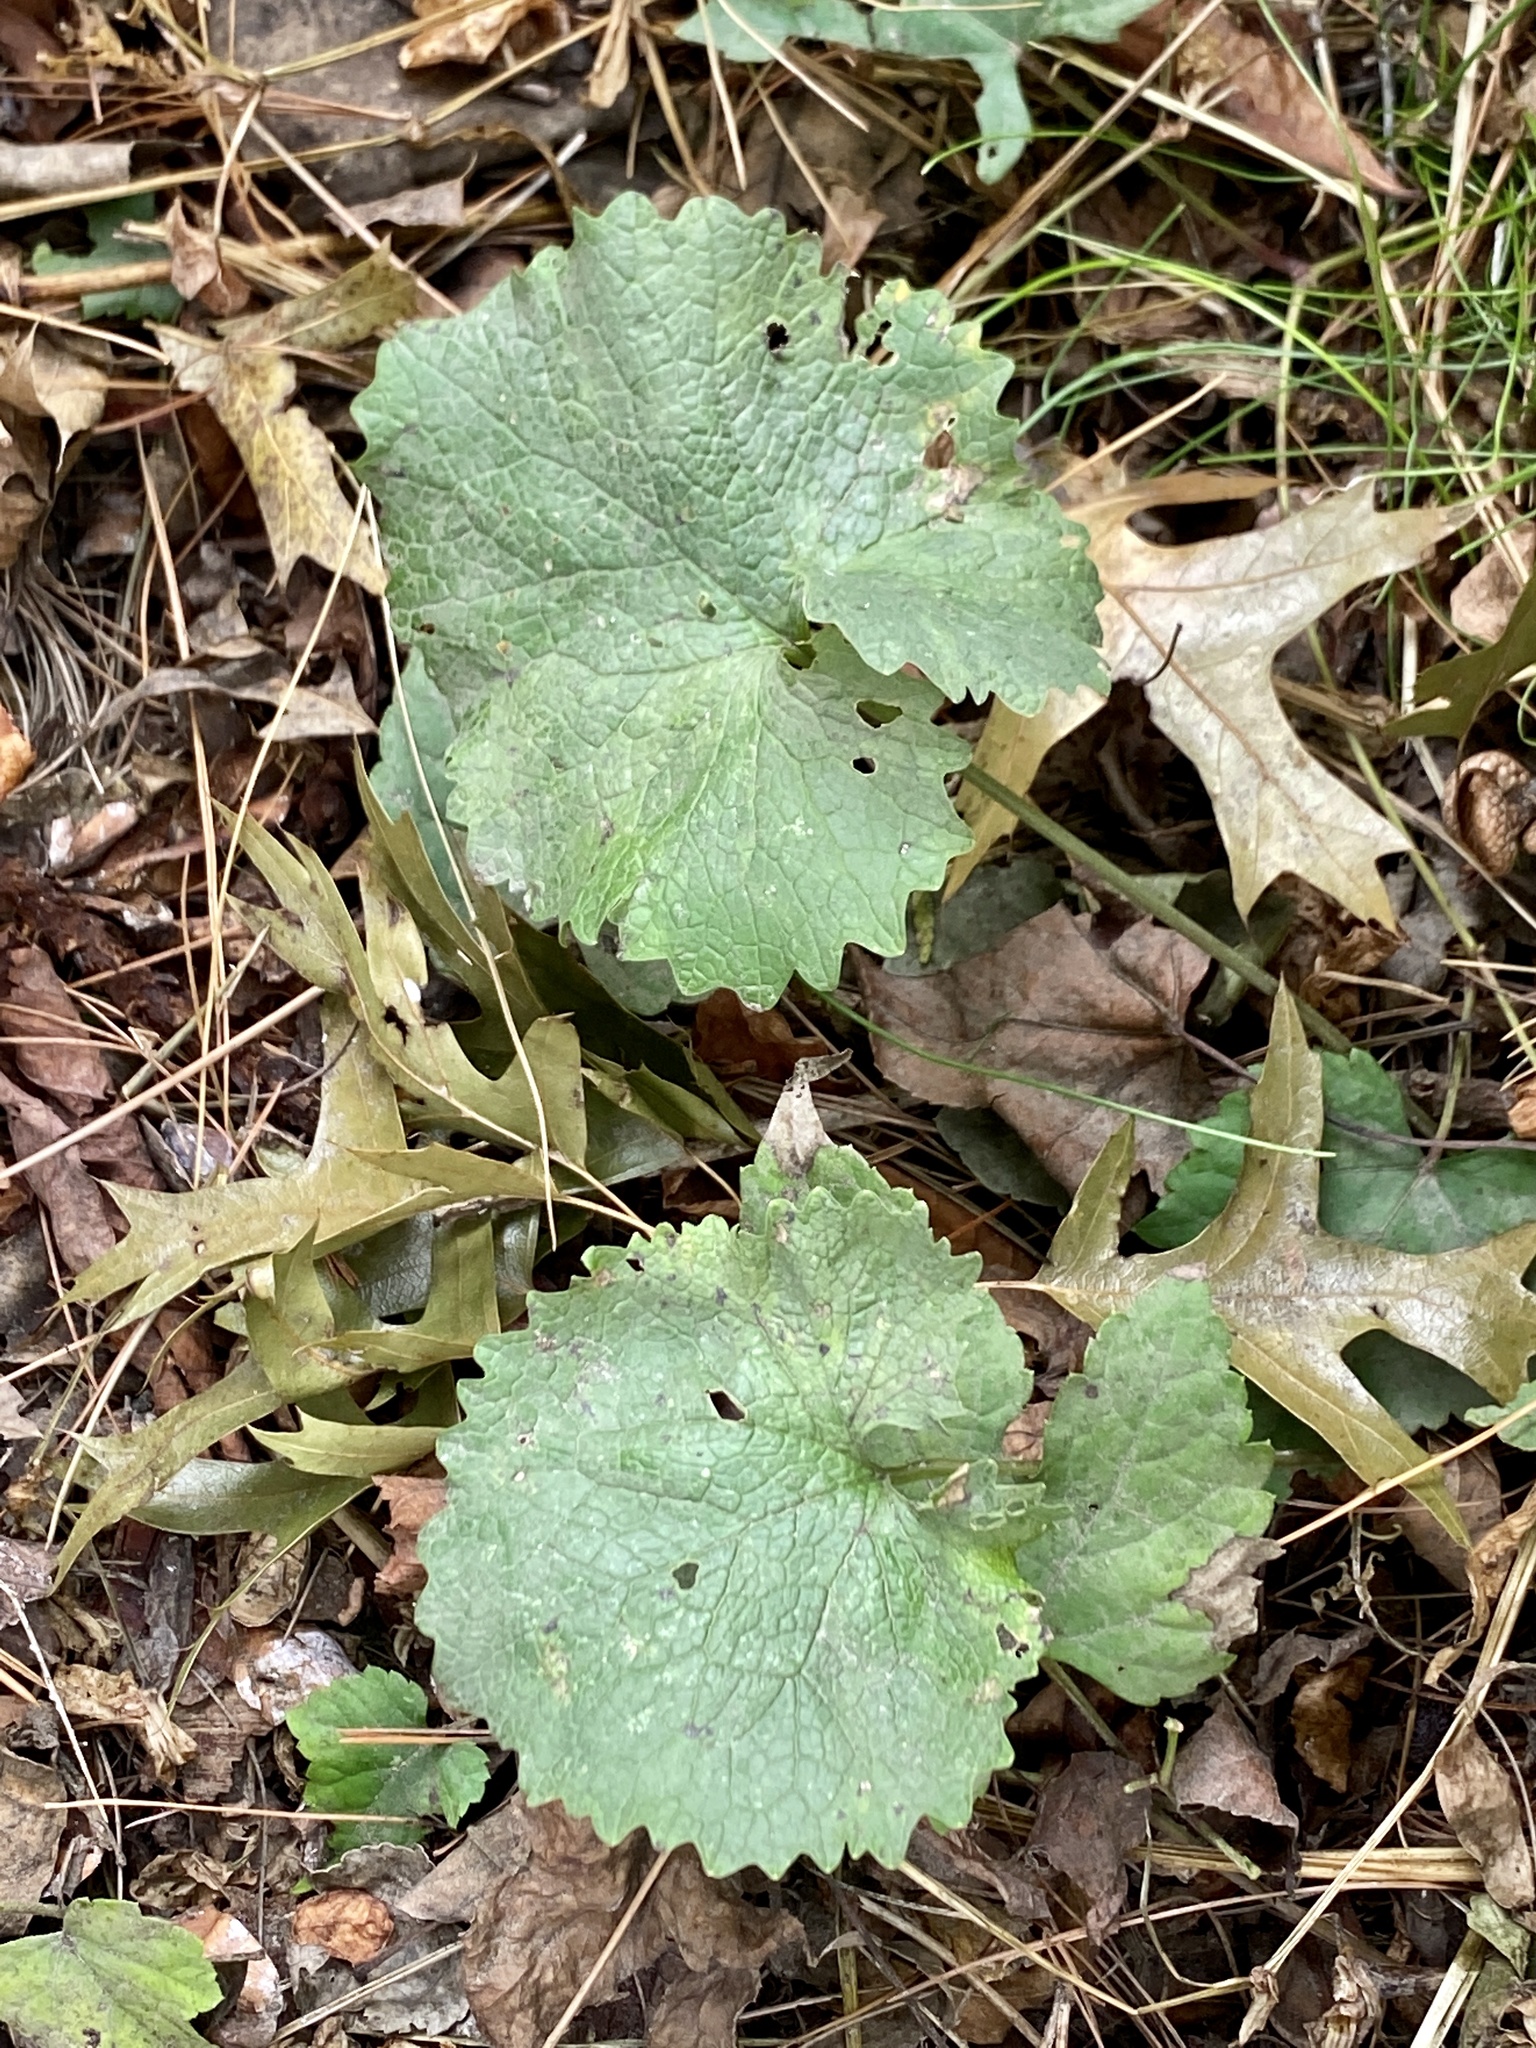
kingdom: Plantae
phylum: Tracheophyta
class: Magnoliopsida
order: Brassicales
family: Brassicaceae
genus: Alliaria
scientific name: Alliaria petiolata
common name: Garlic mustard
